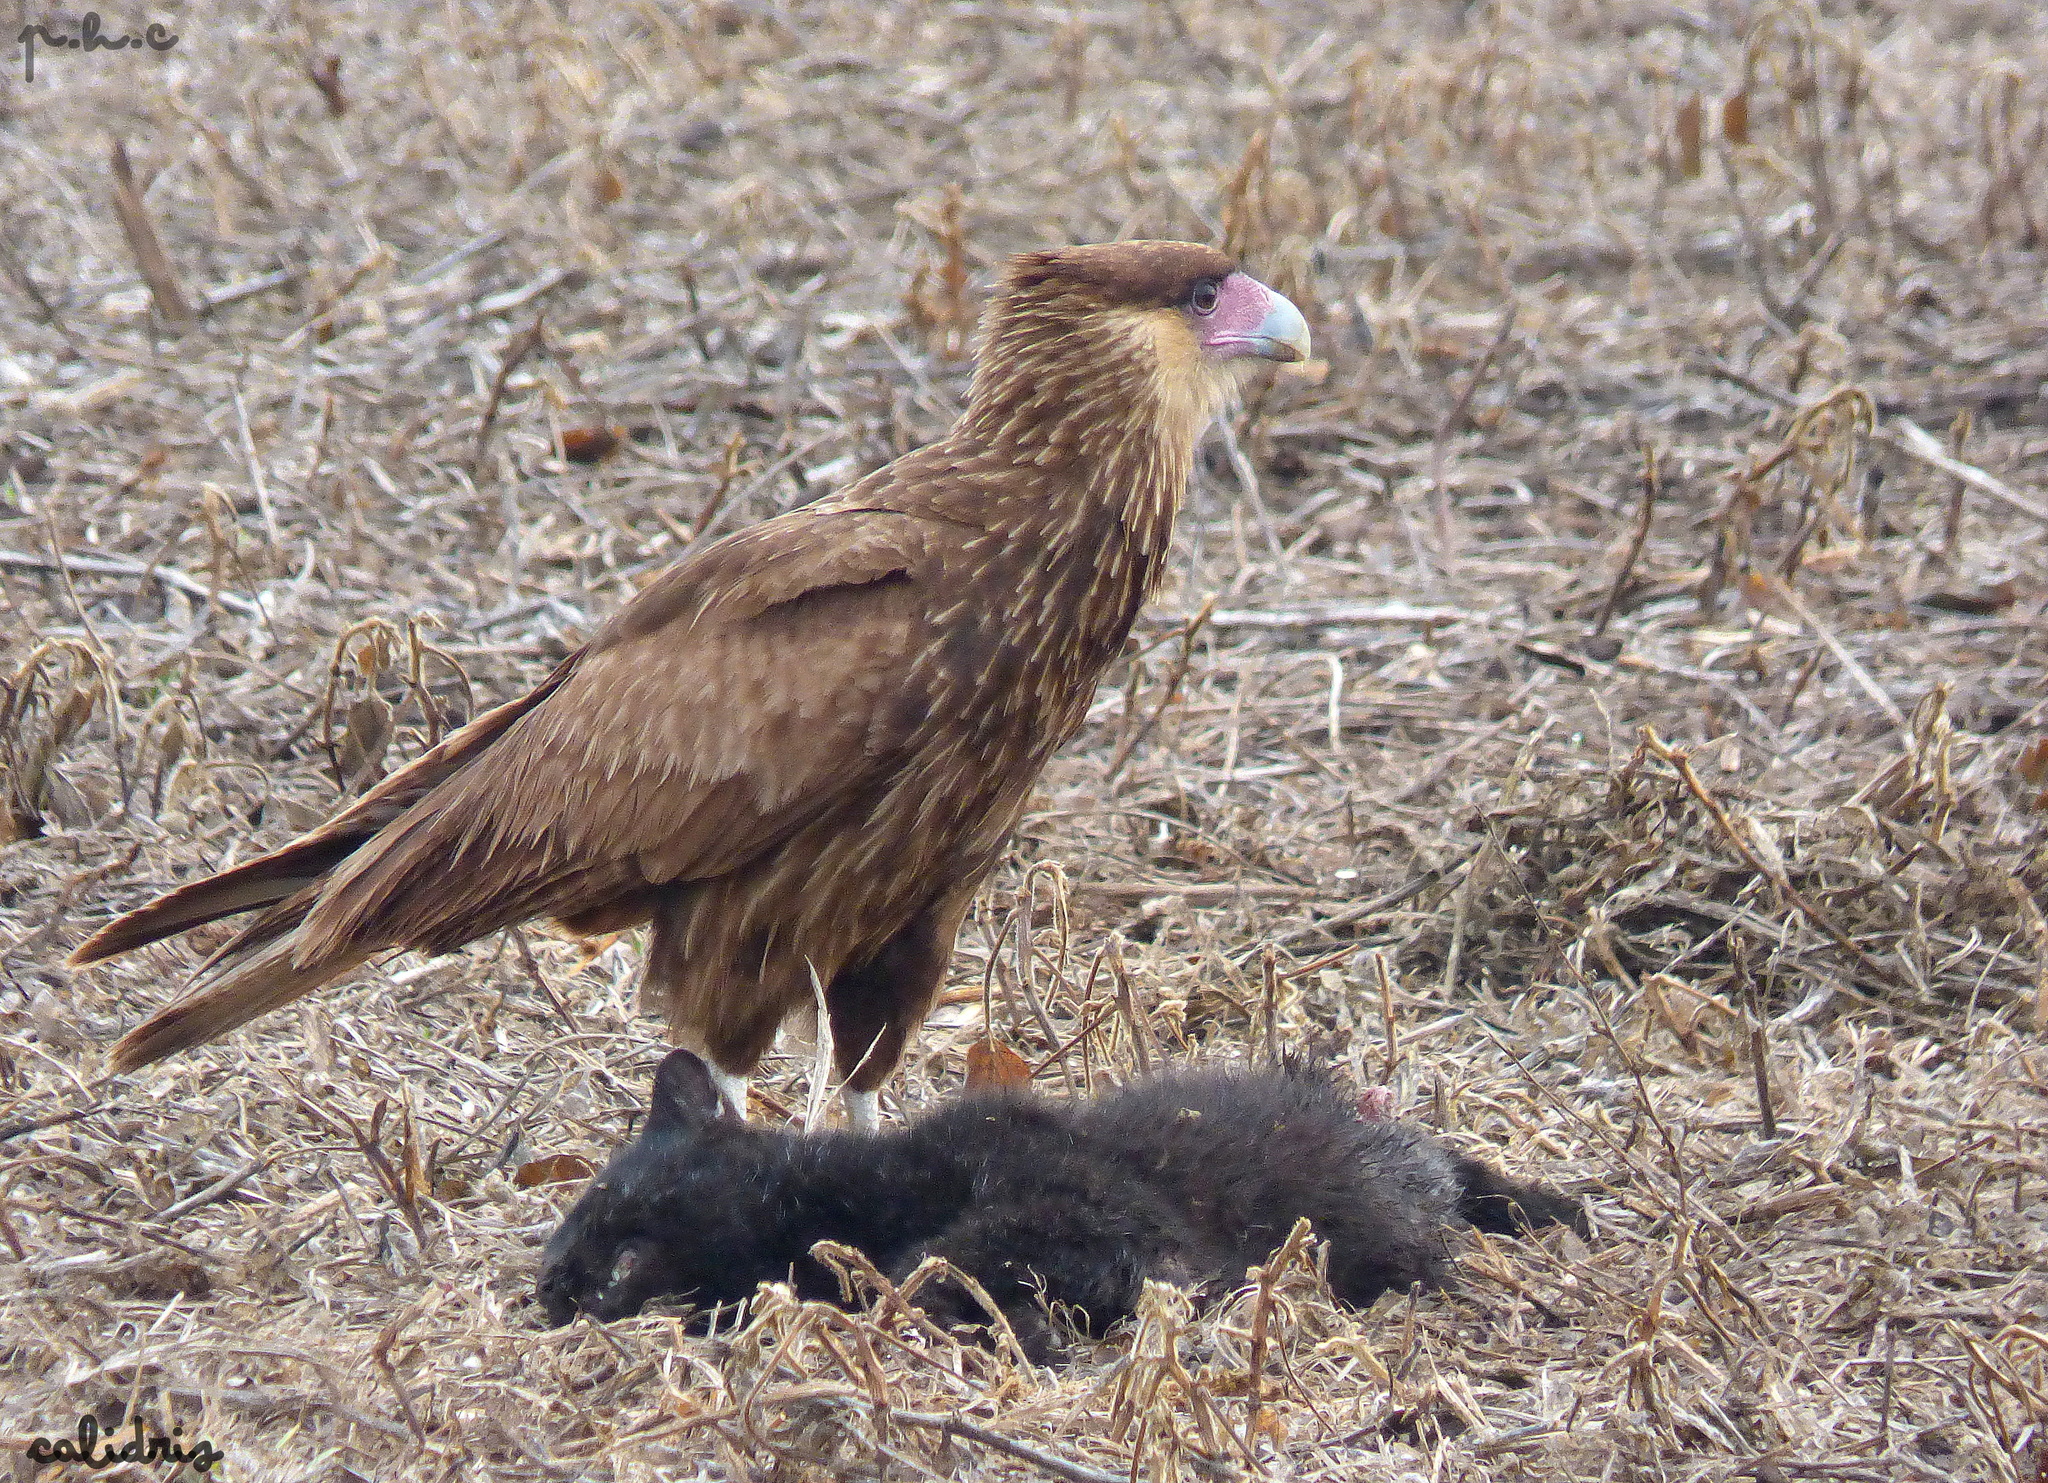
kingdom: Animalia
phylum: Chordata
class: Aves
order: Falconiformes
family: Falconidae
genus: Caracara
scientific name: Caracara plancus
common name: Southern caracara
